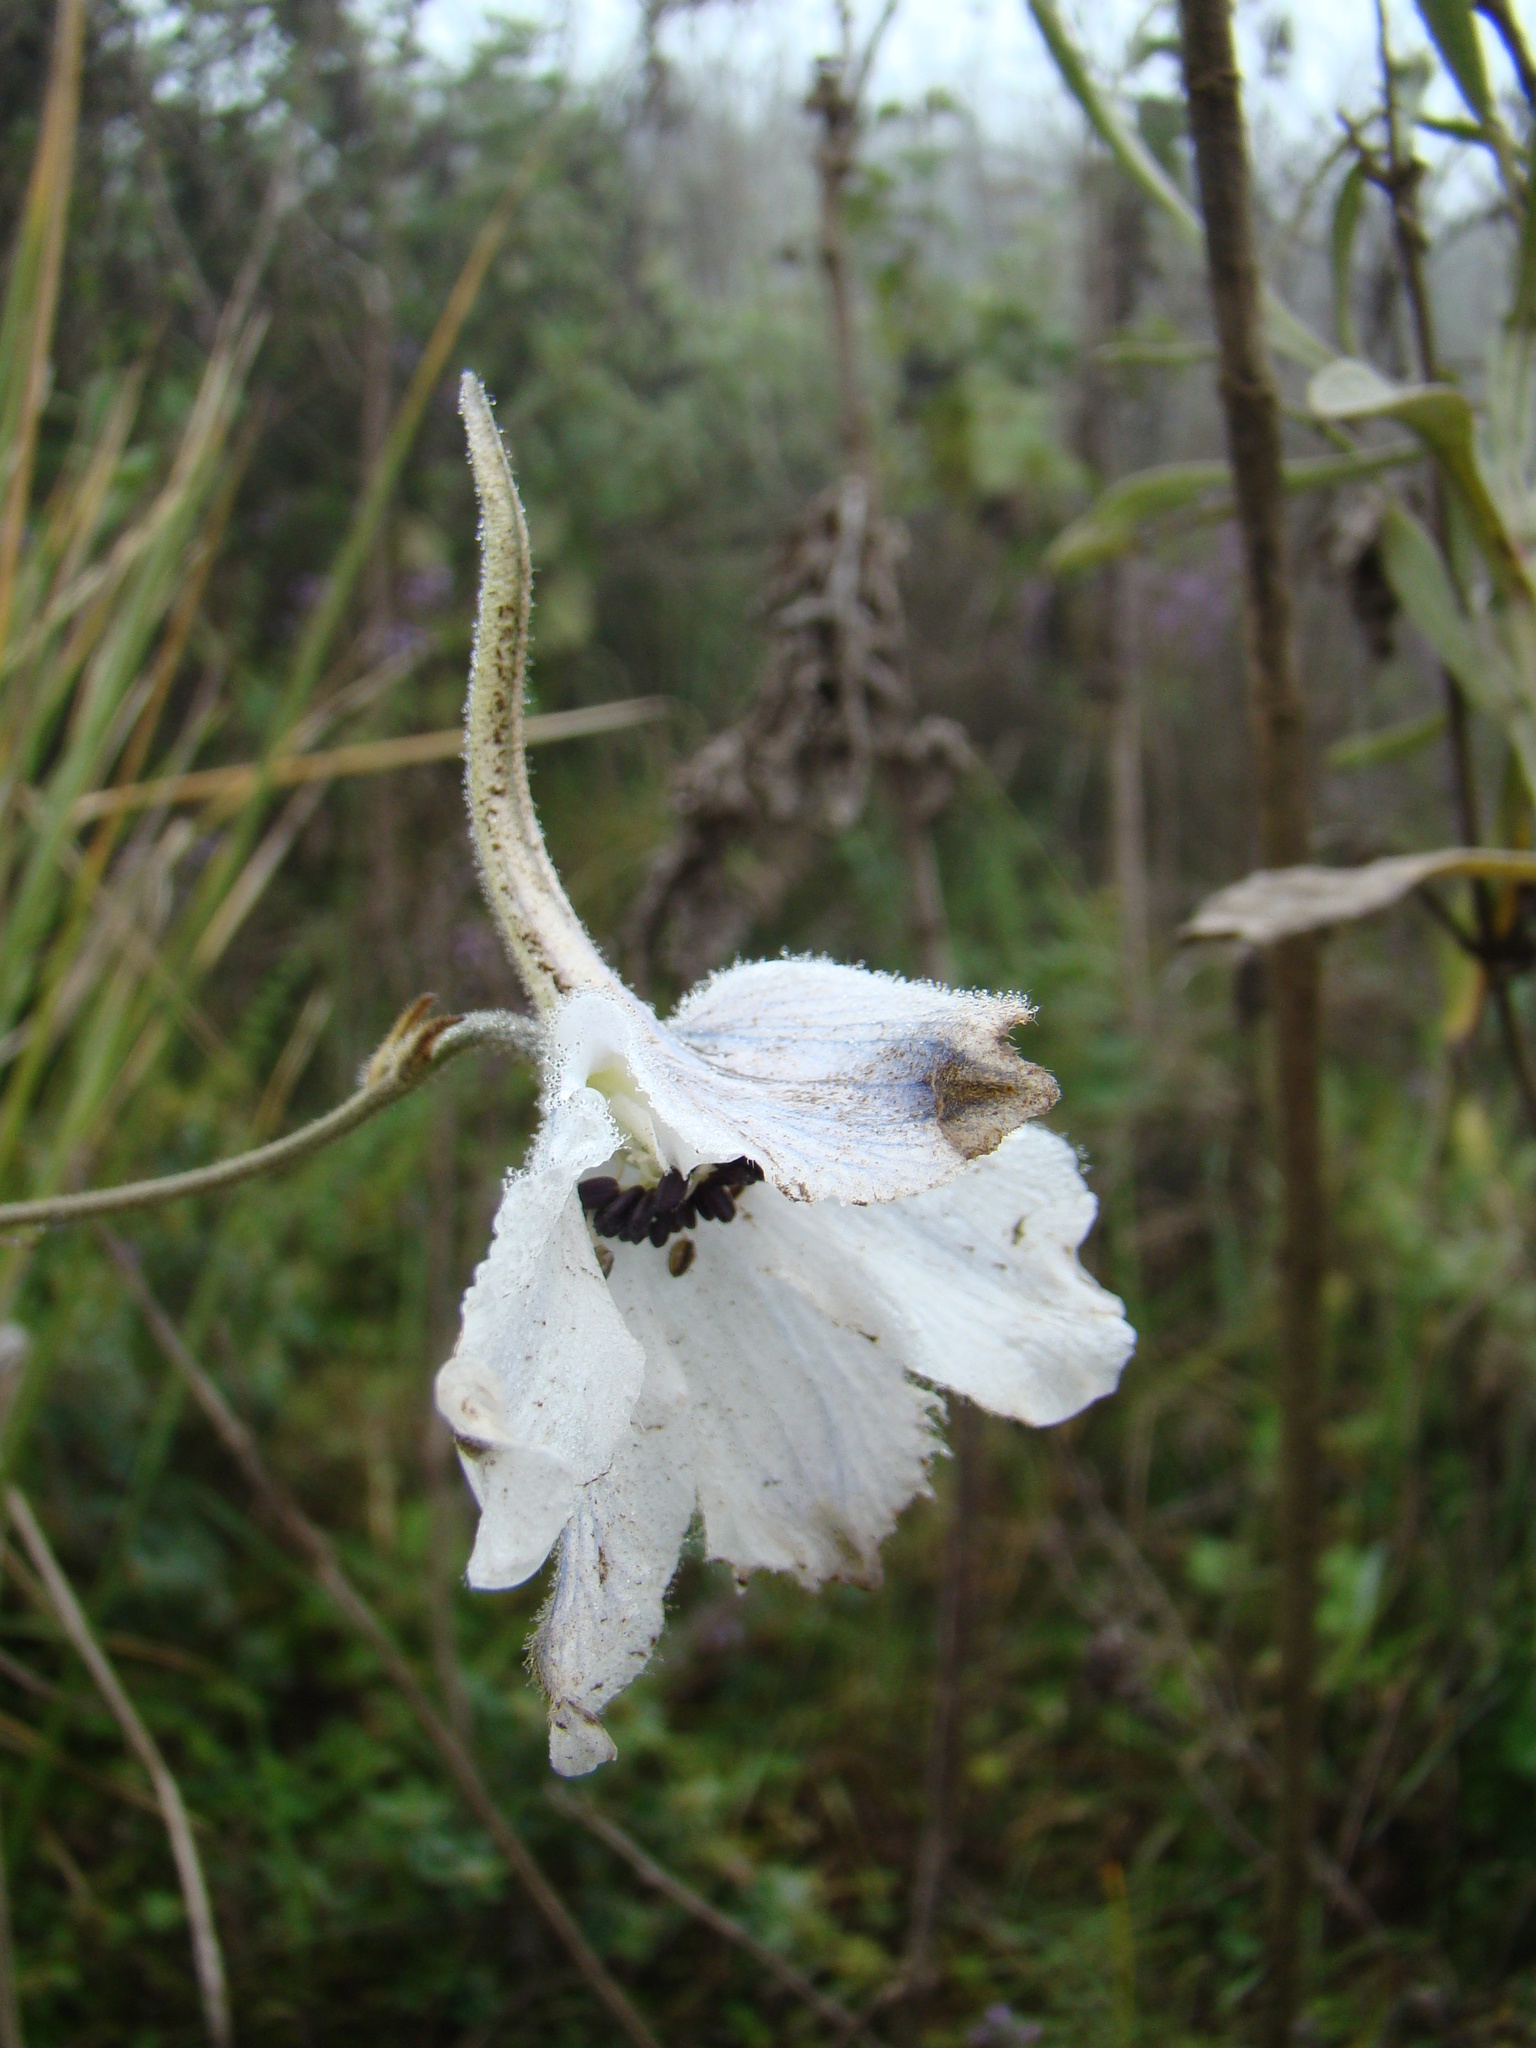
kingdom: Plantae
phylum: Tracheophyta
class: Magnoliopsida
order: Ranunculales
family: Ranunculaceae
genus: Delphinium
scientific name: Delphinium leroyi
